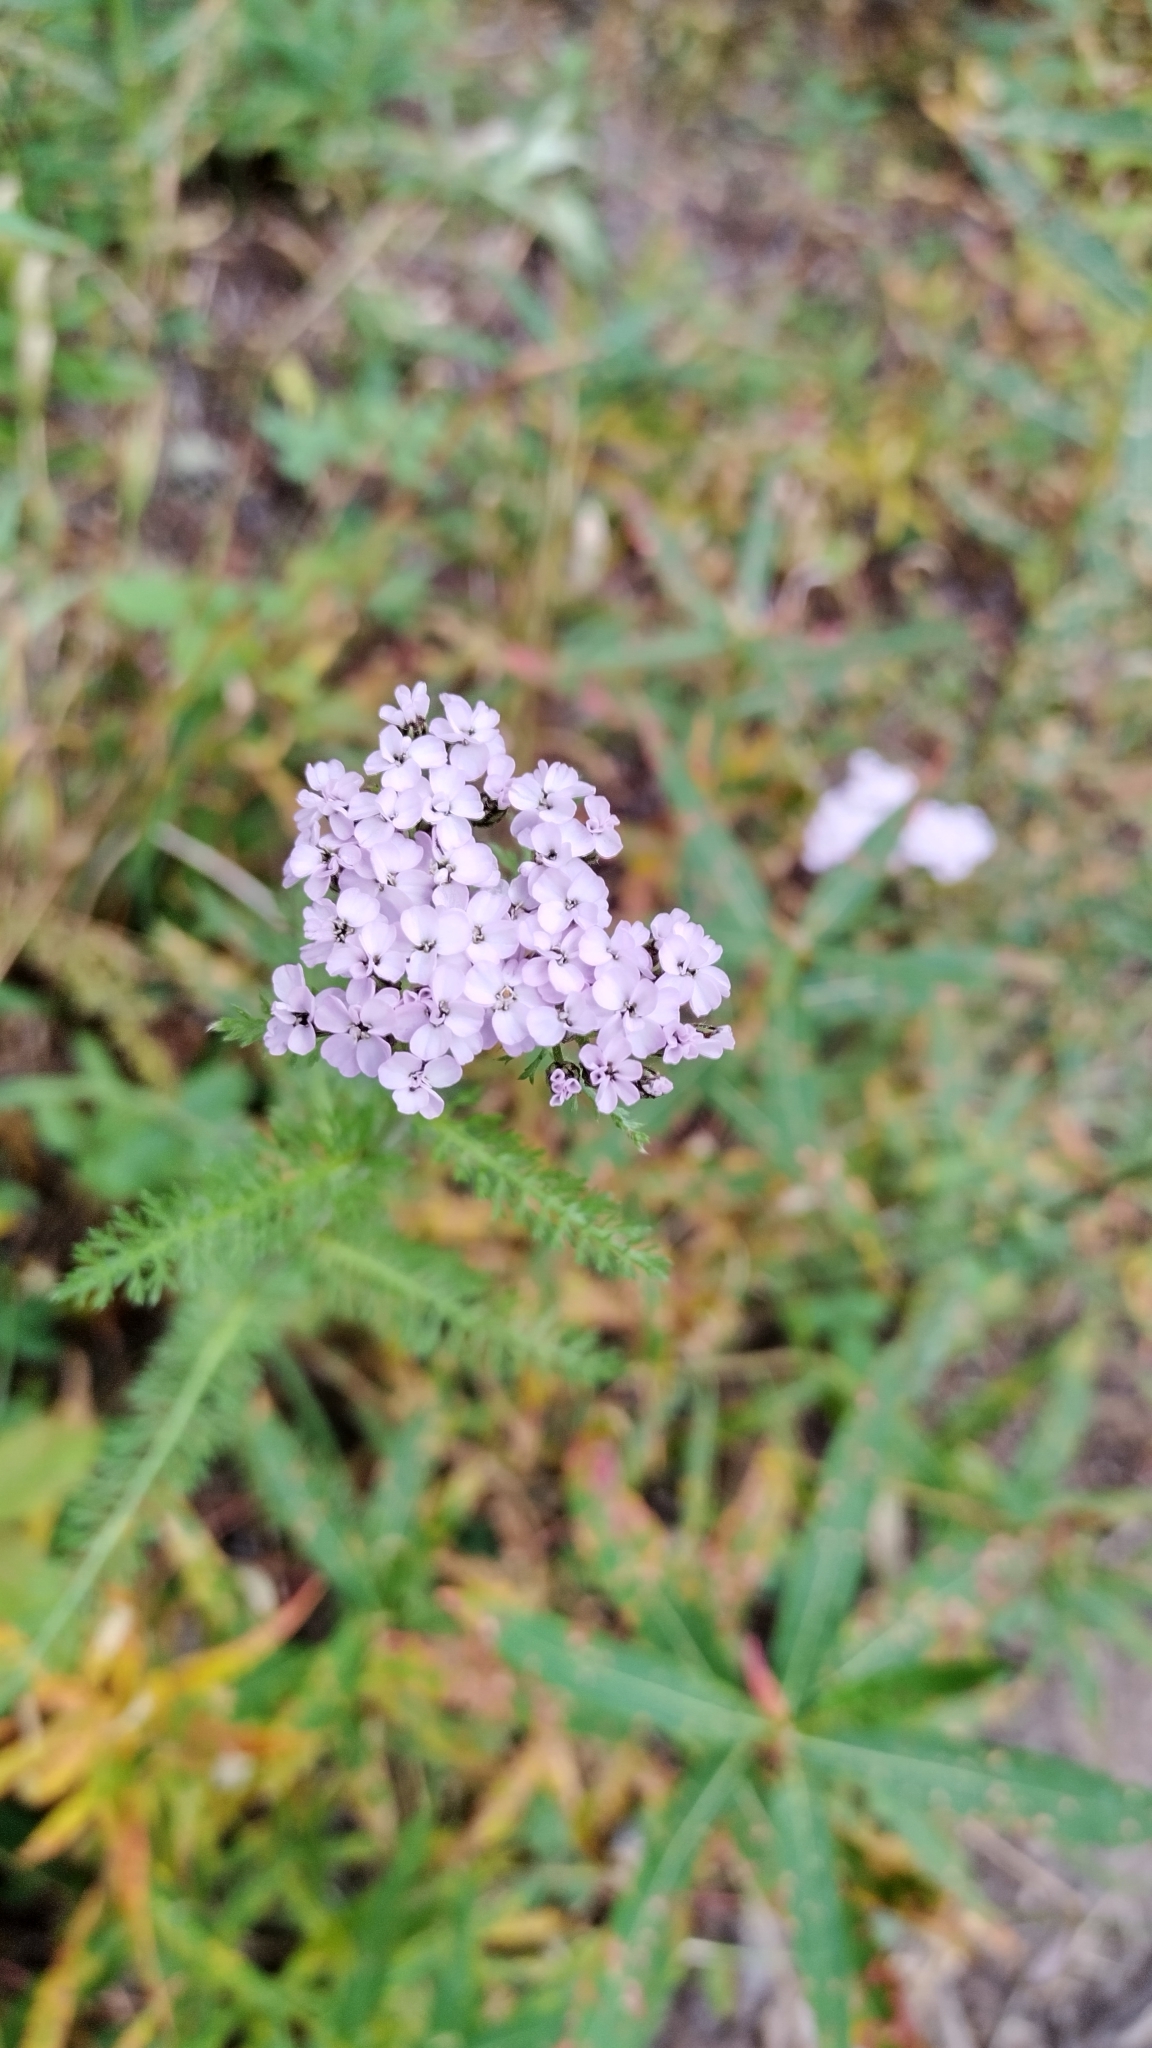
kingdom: Plantae
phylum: Tracheophyta
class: Magnoliopsida
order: Asterales
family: Asteraceae
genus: Achillea
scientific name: Achillea millefolium
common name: Yarrow
